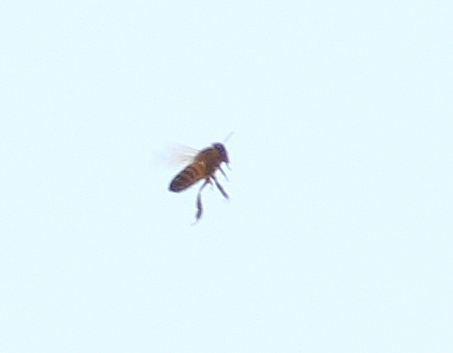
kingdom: Animalia
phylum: Arthropoda
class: Insecta
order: Hymenoptera
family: Apidae
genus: Apis
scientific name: Apis mellifera
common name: Honey bee
